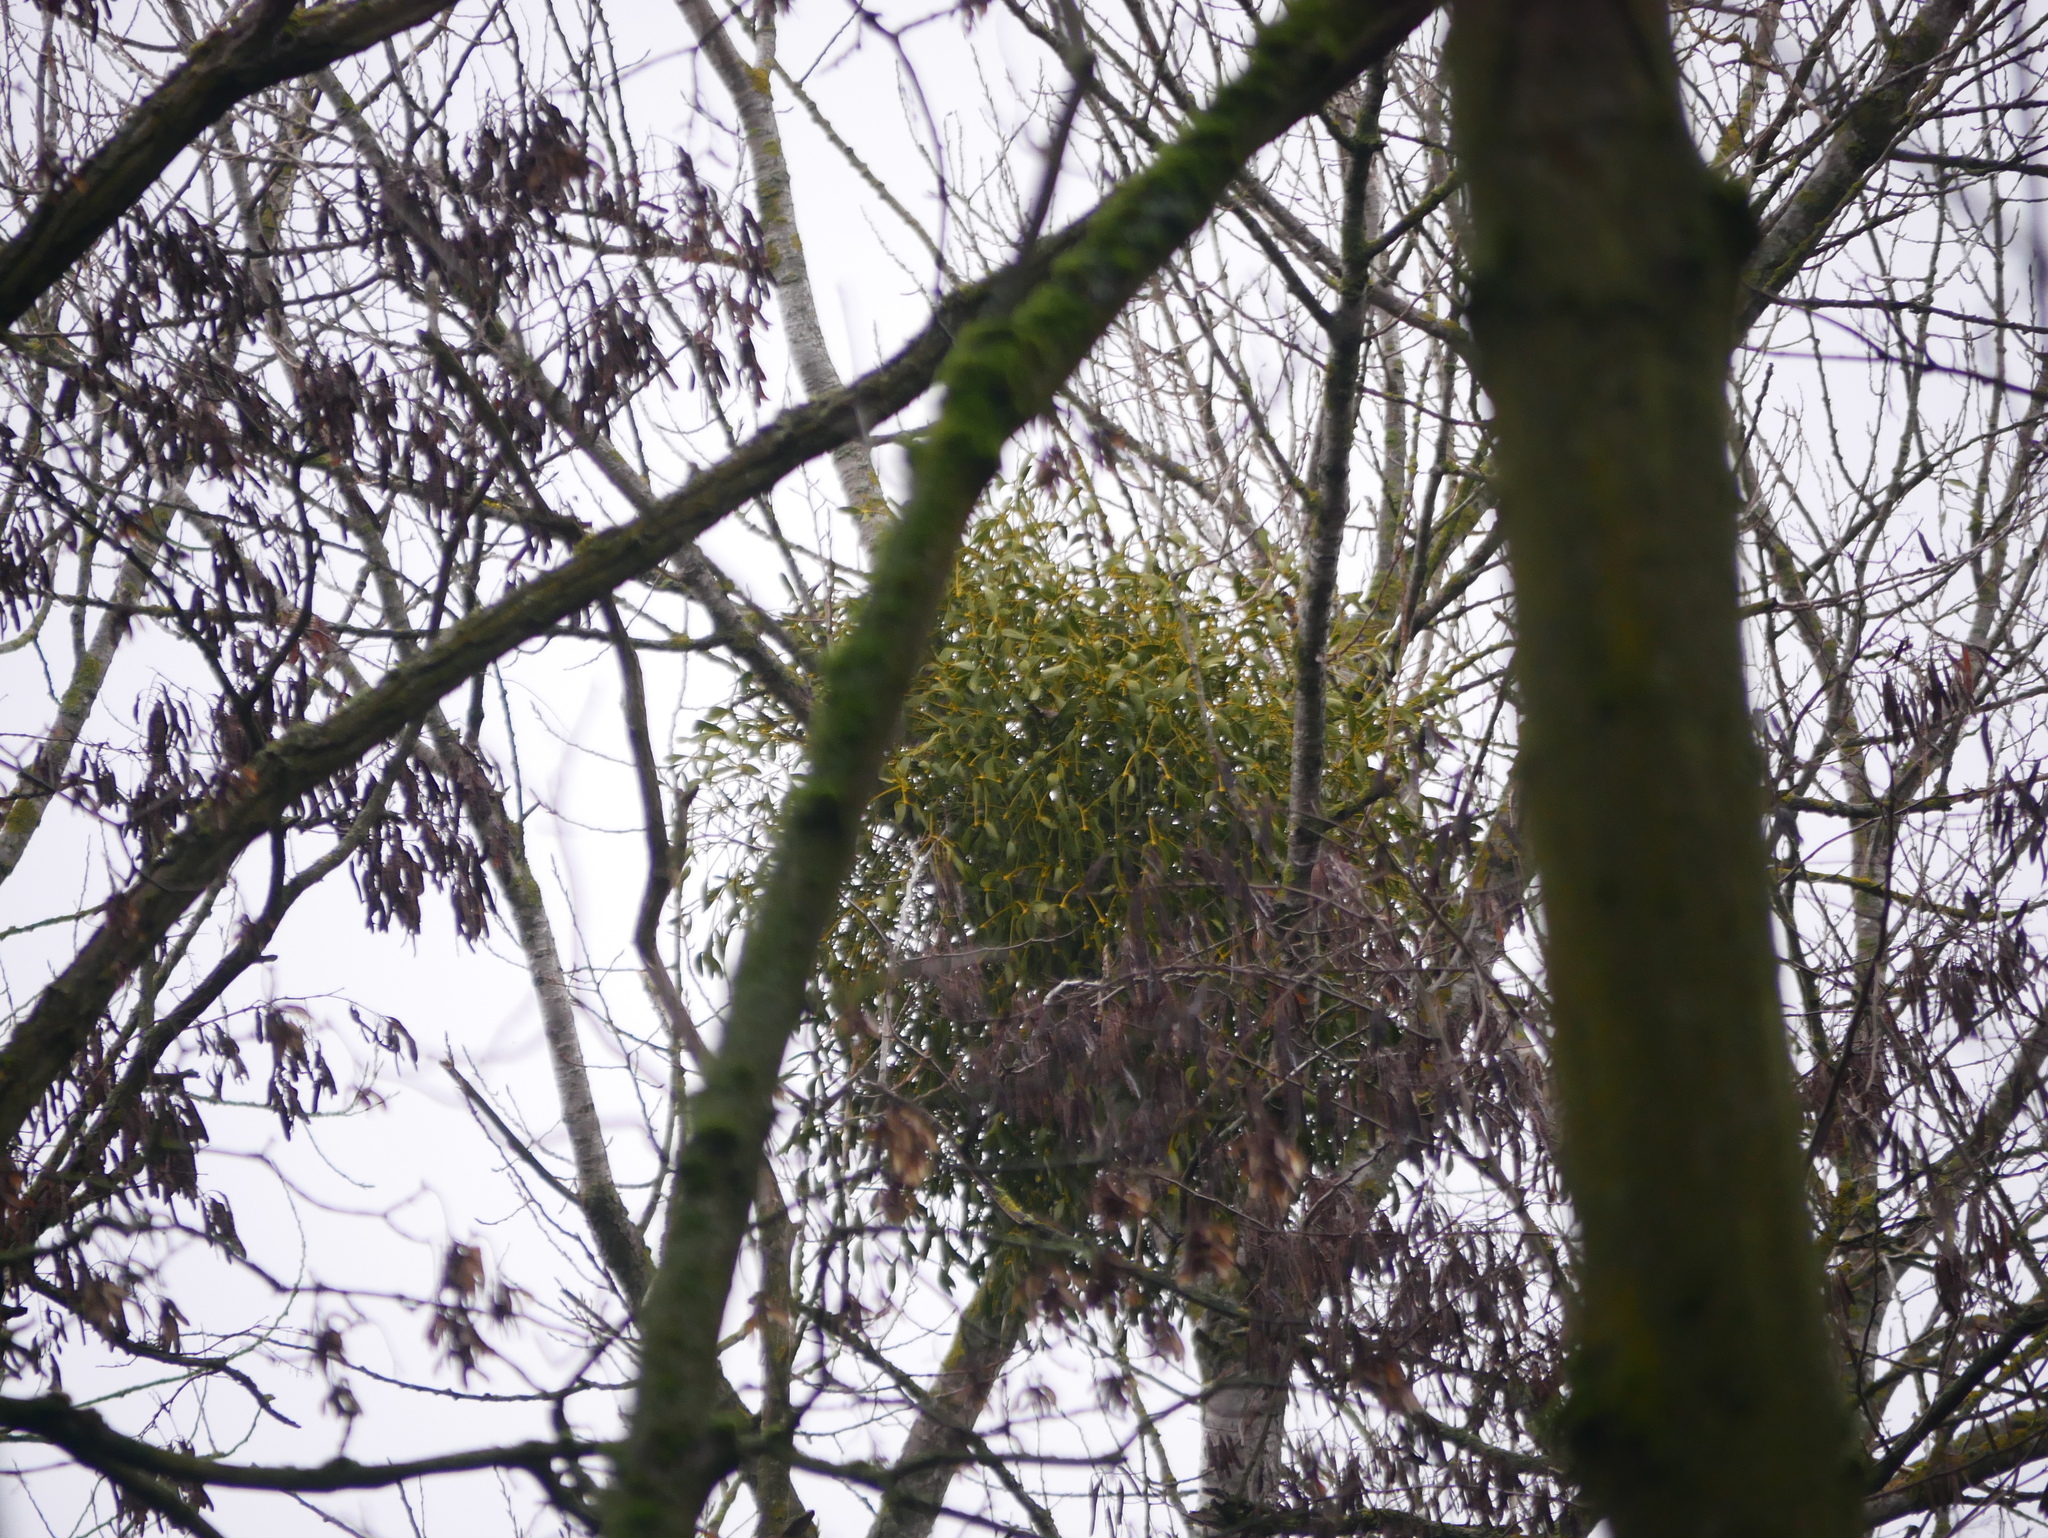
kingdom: Plantae
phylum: Tracheophyta
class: Magnoliopsida
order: Santalales
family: Viscaceae
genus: Viscum
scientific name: Viscum album
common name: Mistletoe
